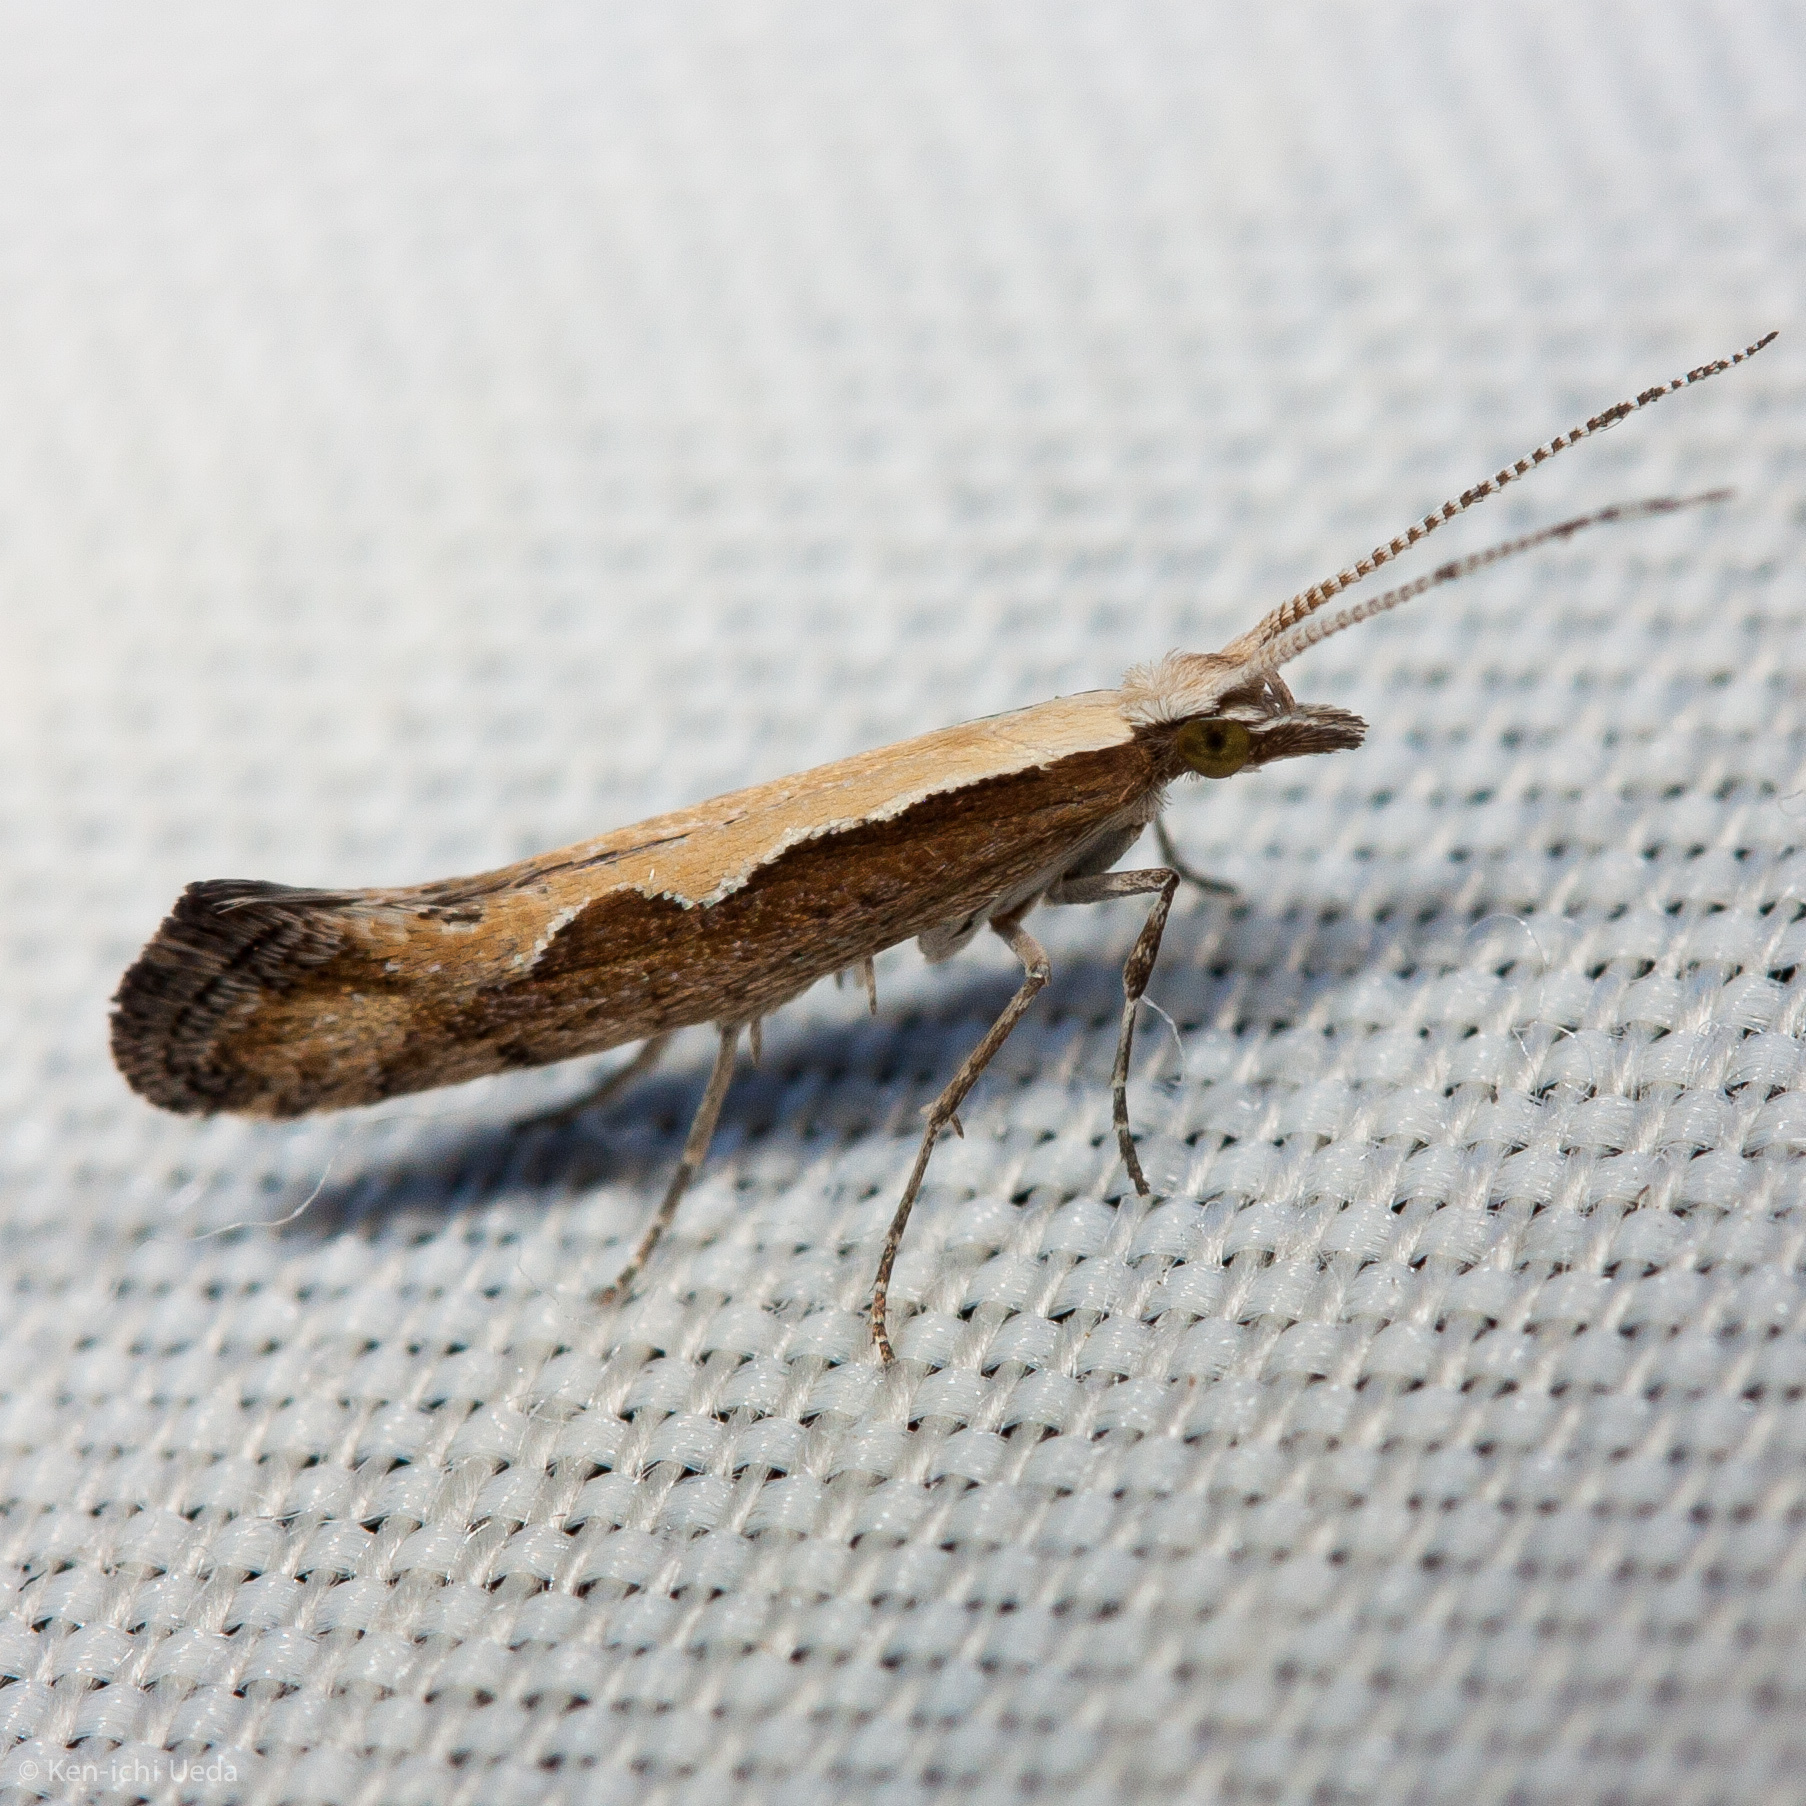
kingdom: Animalia
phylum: Arthropoda
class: Insecta
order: Lepidoptera
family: Plutellidae
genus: Plutella
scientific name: Plutella xylostella
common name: Diamond-back moth
